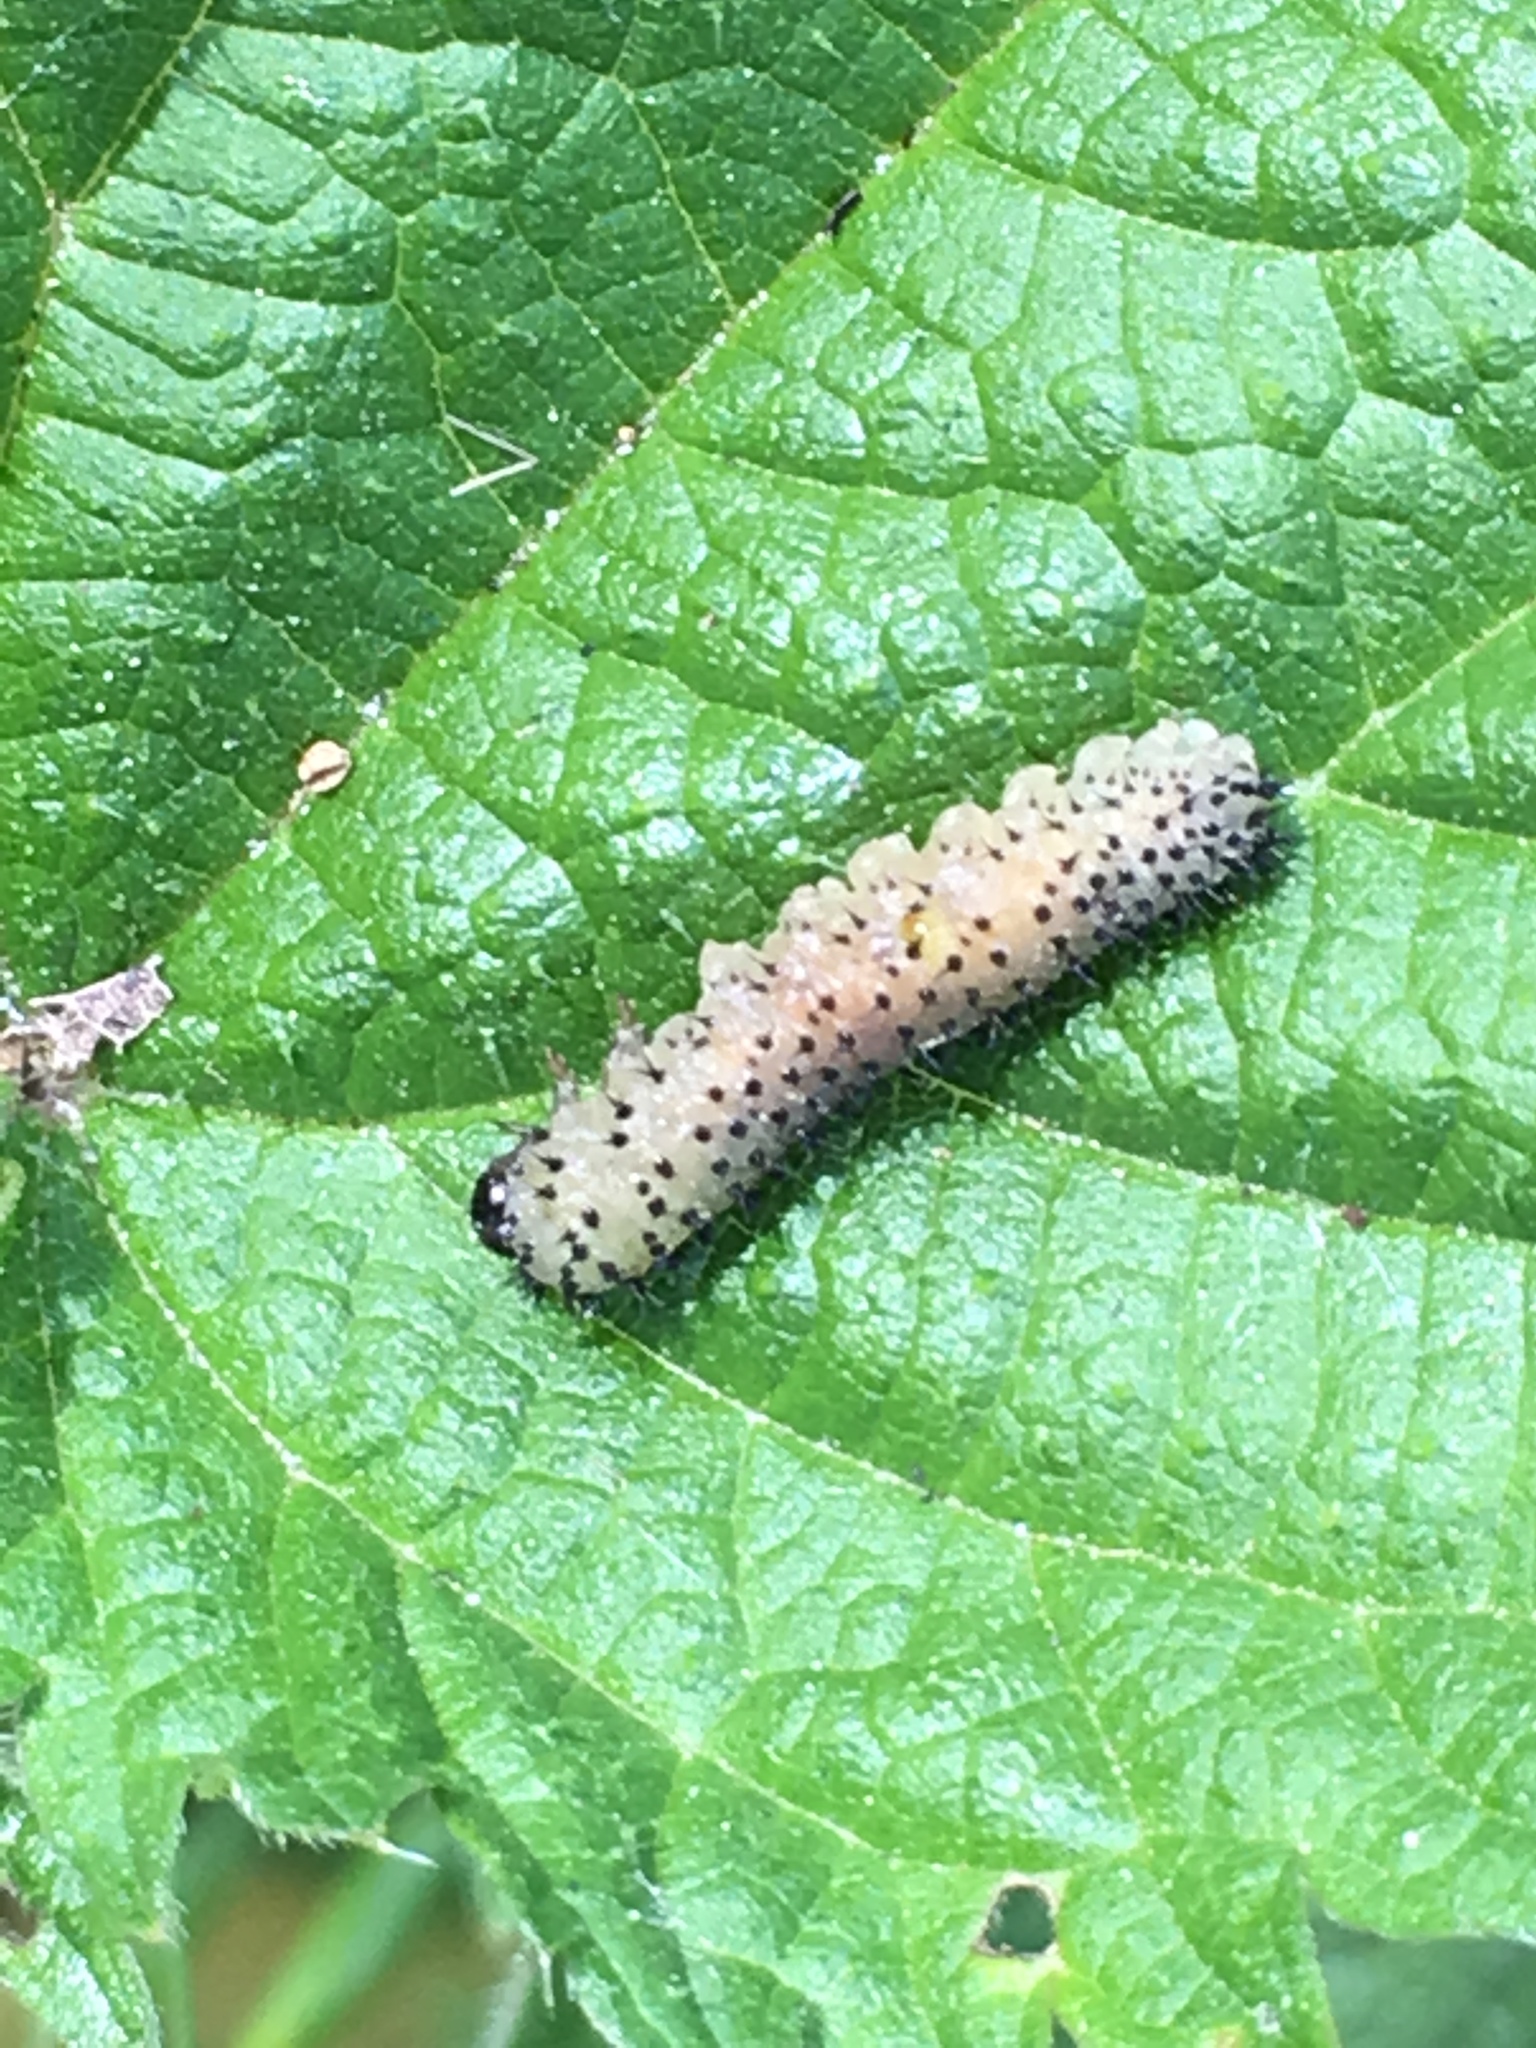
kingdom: Animalia
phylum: Arthropoda
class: Insecta
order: Hymenoptera
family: Tenthredinidae
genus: Periclista
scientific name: Periclista albida
